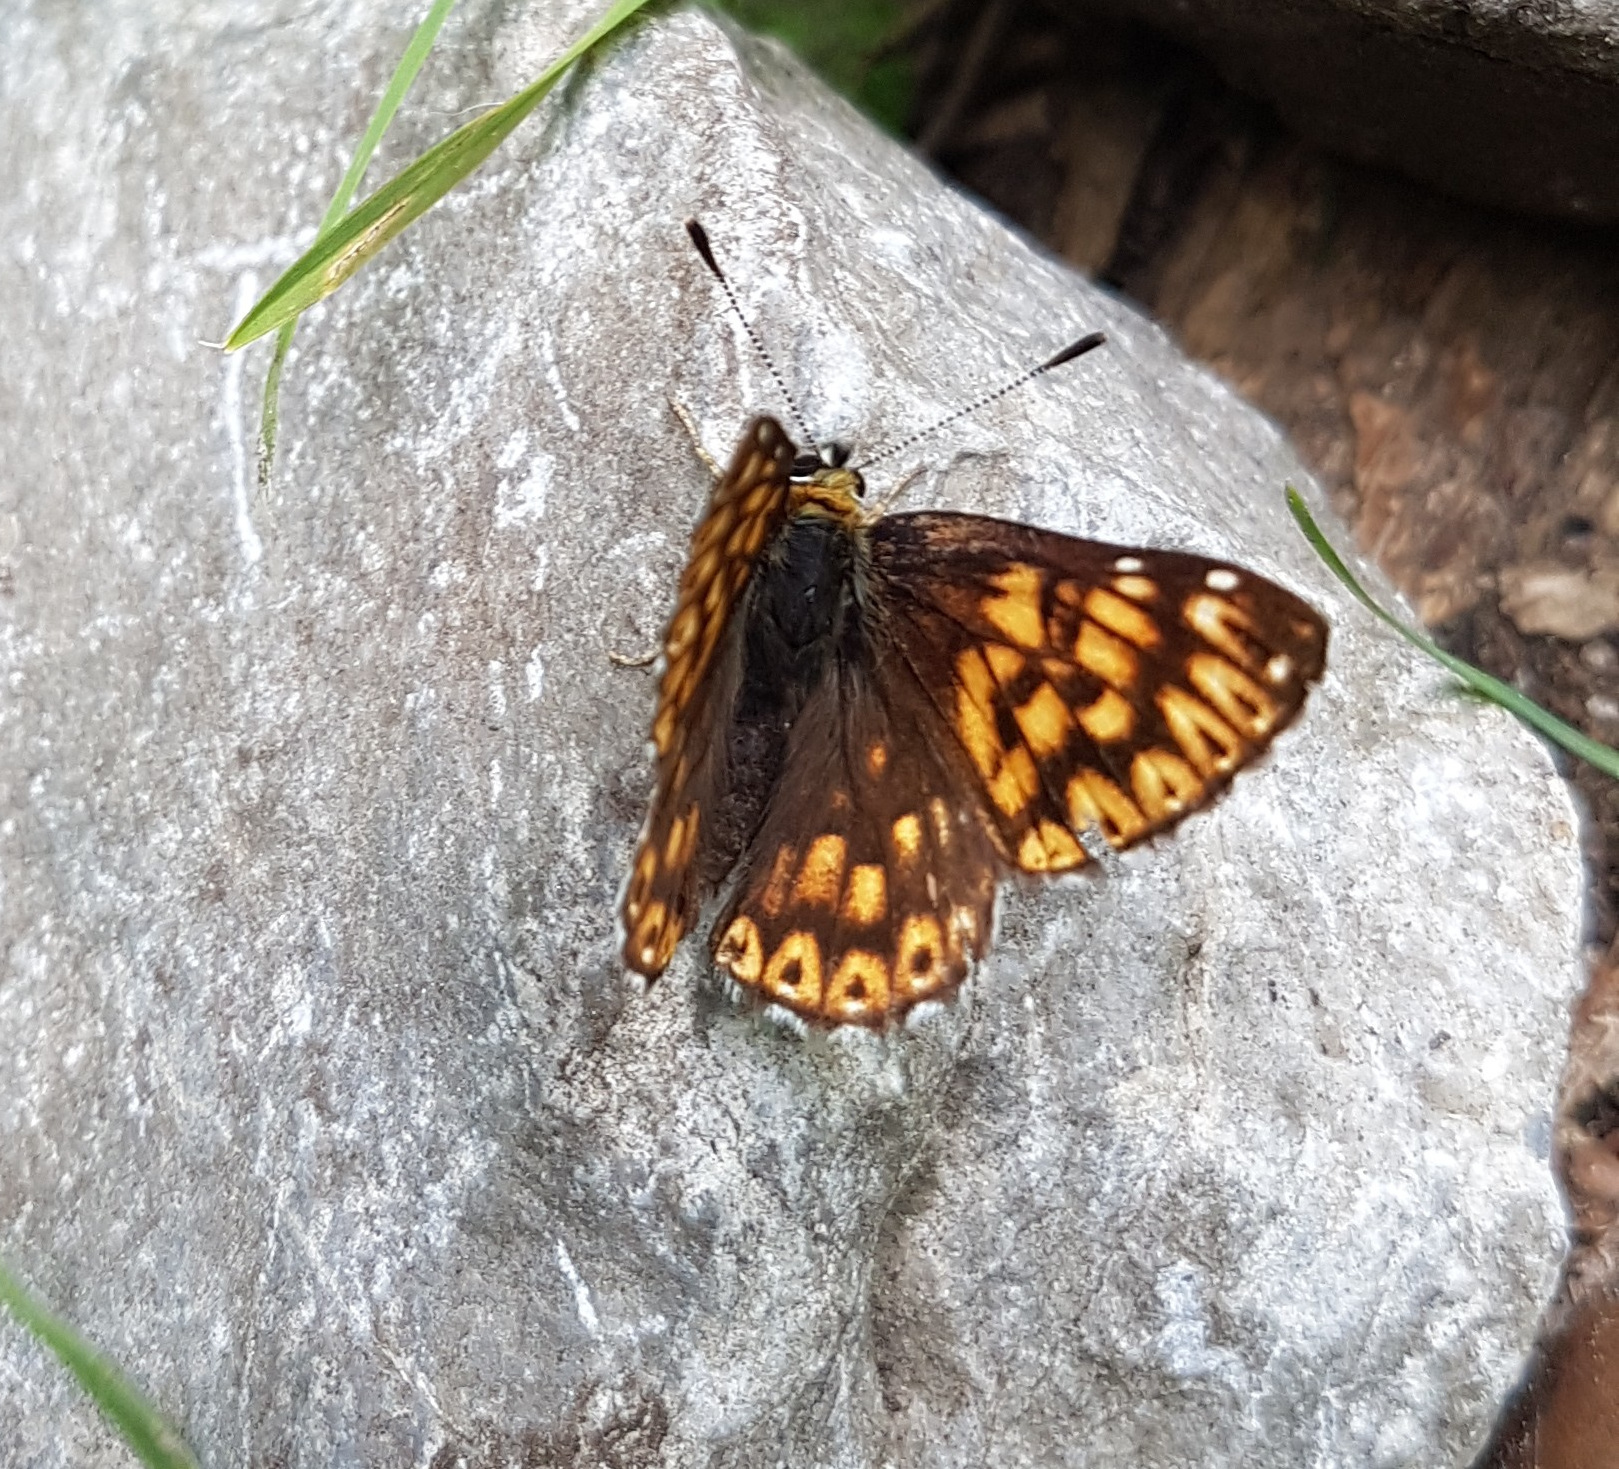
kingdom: Animalia
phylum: Arthropoda
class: Insecta
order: Lepidoptera
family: Riodinidae
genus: Hamearis
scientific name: Hamearis lucina
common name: Duke of burgundy fritillary
